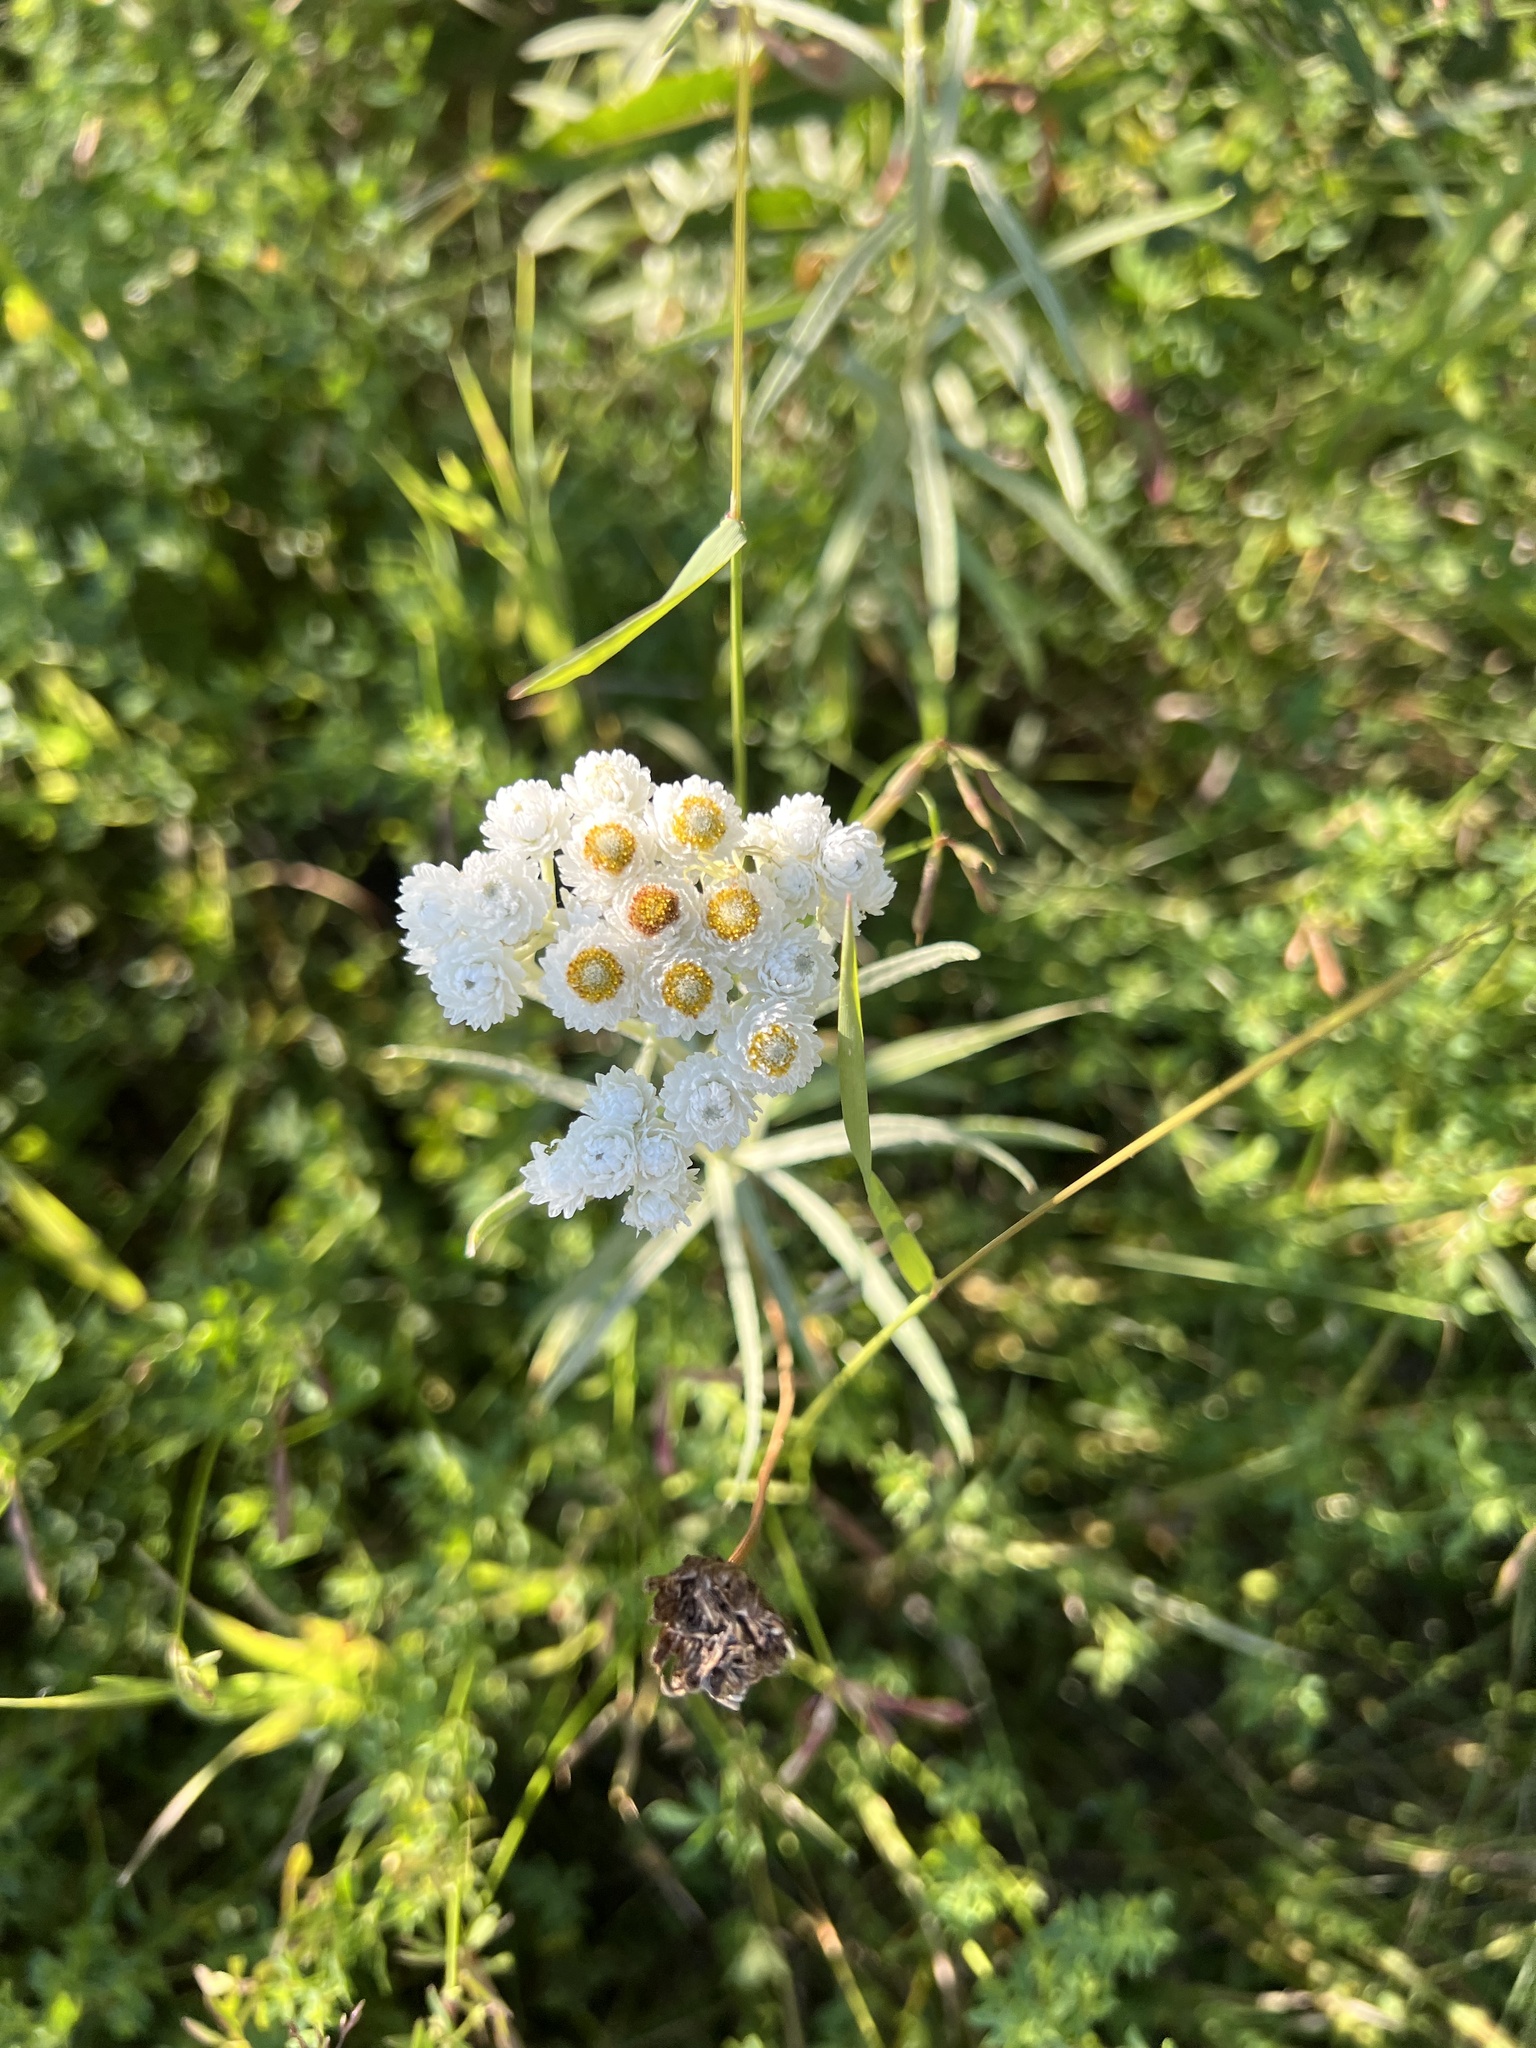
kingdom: Plantae
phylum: Tracheophyta
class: Magnoliopsida
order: Asterales
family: Asteraceae
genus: Anaphalis
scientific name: Anaphalis margaritacea
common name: Pearly everlasting
